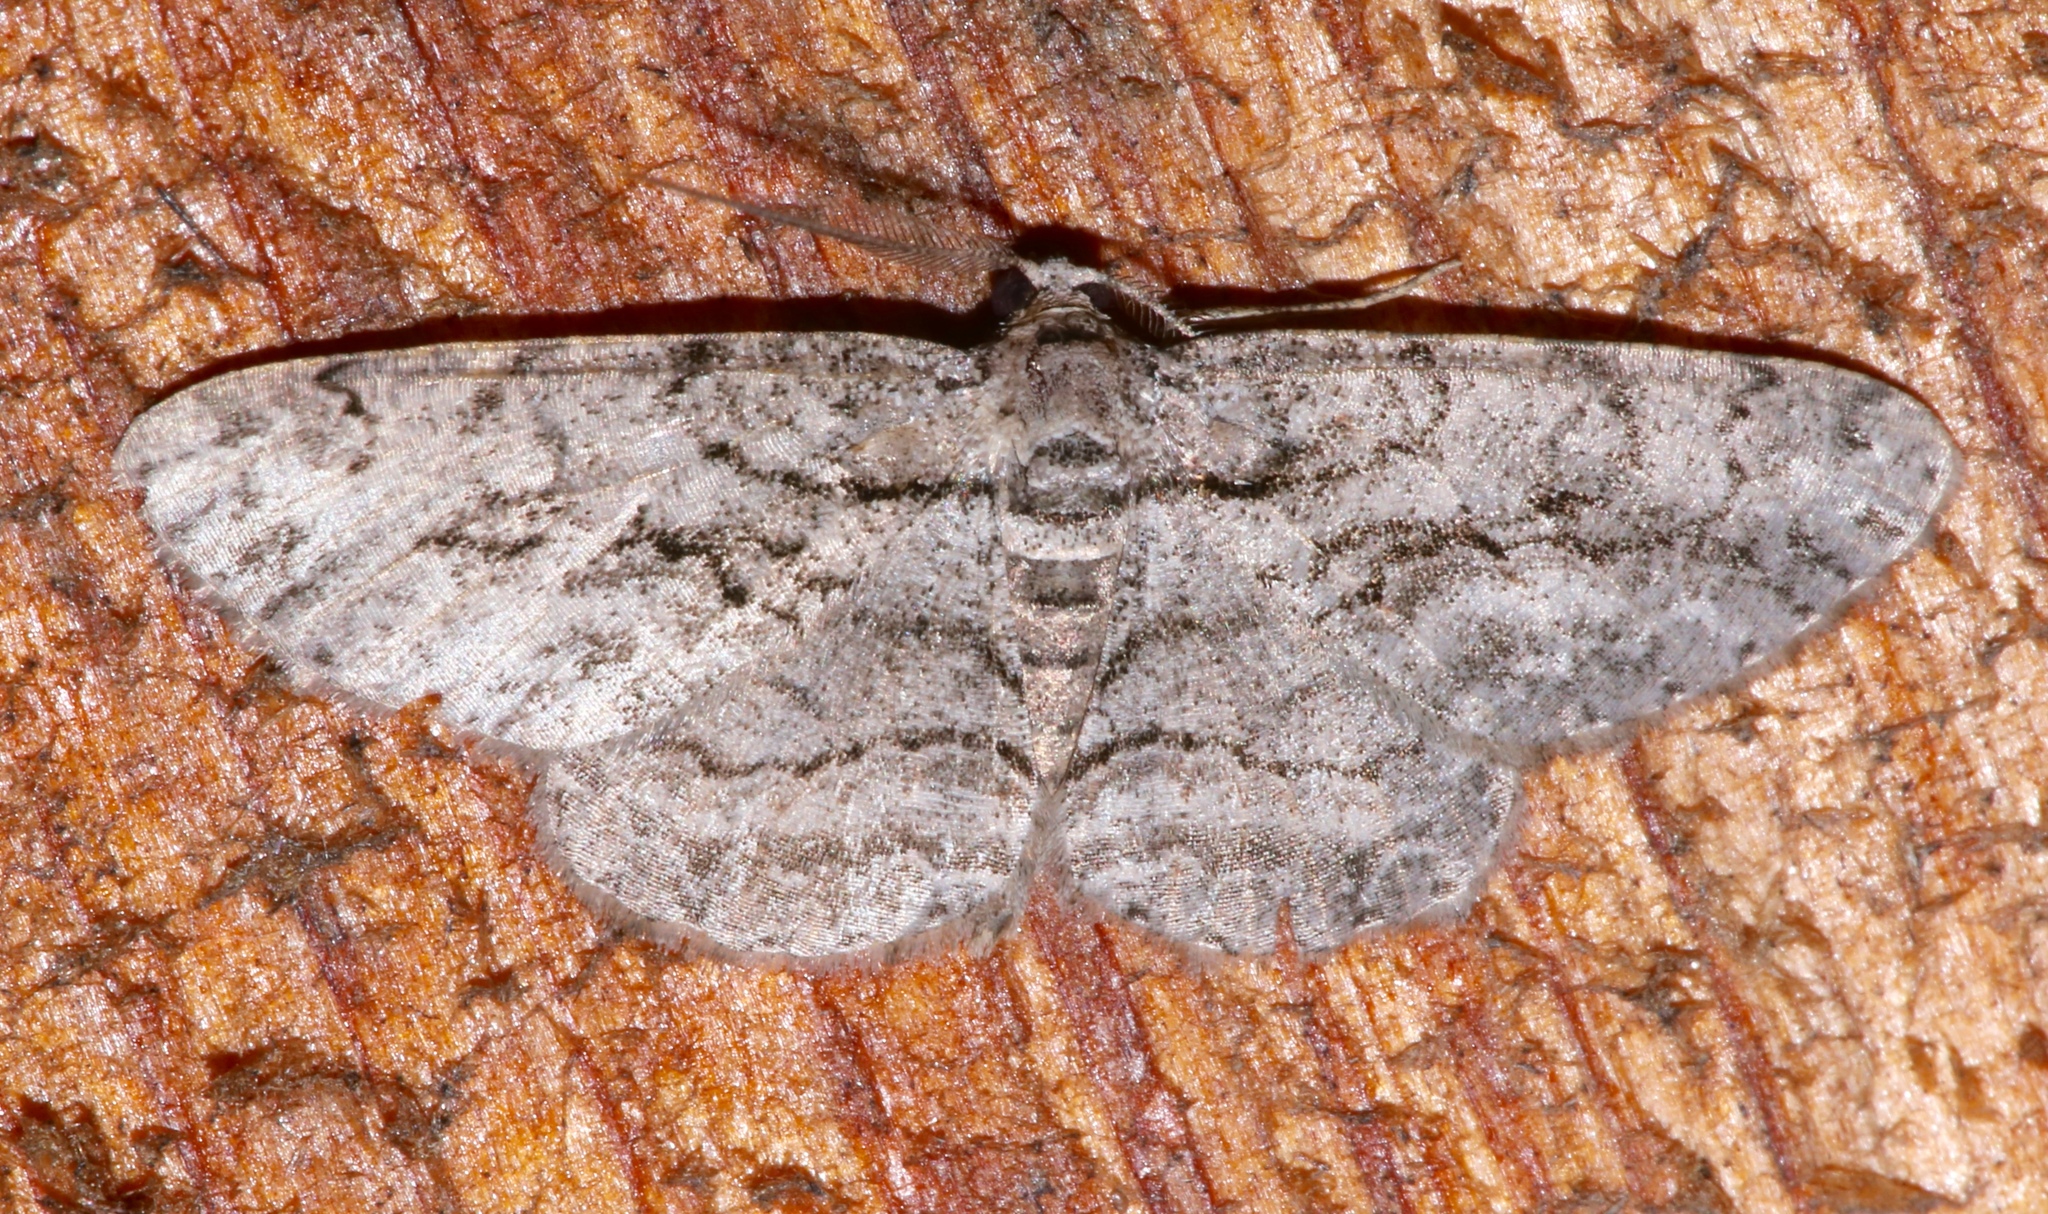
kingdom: Animalia
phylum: Arthropoda
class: Insecta
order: Lepidoptera
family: Geometridae
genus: Anavitrinella
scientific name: Anavitrinella pampinaria
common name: Common gray
